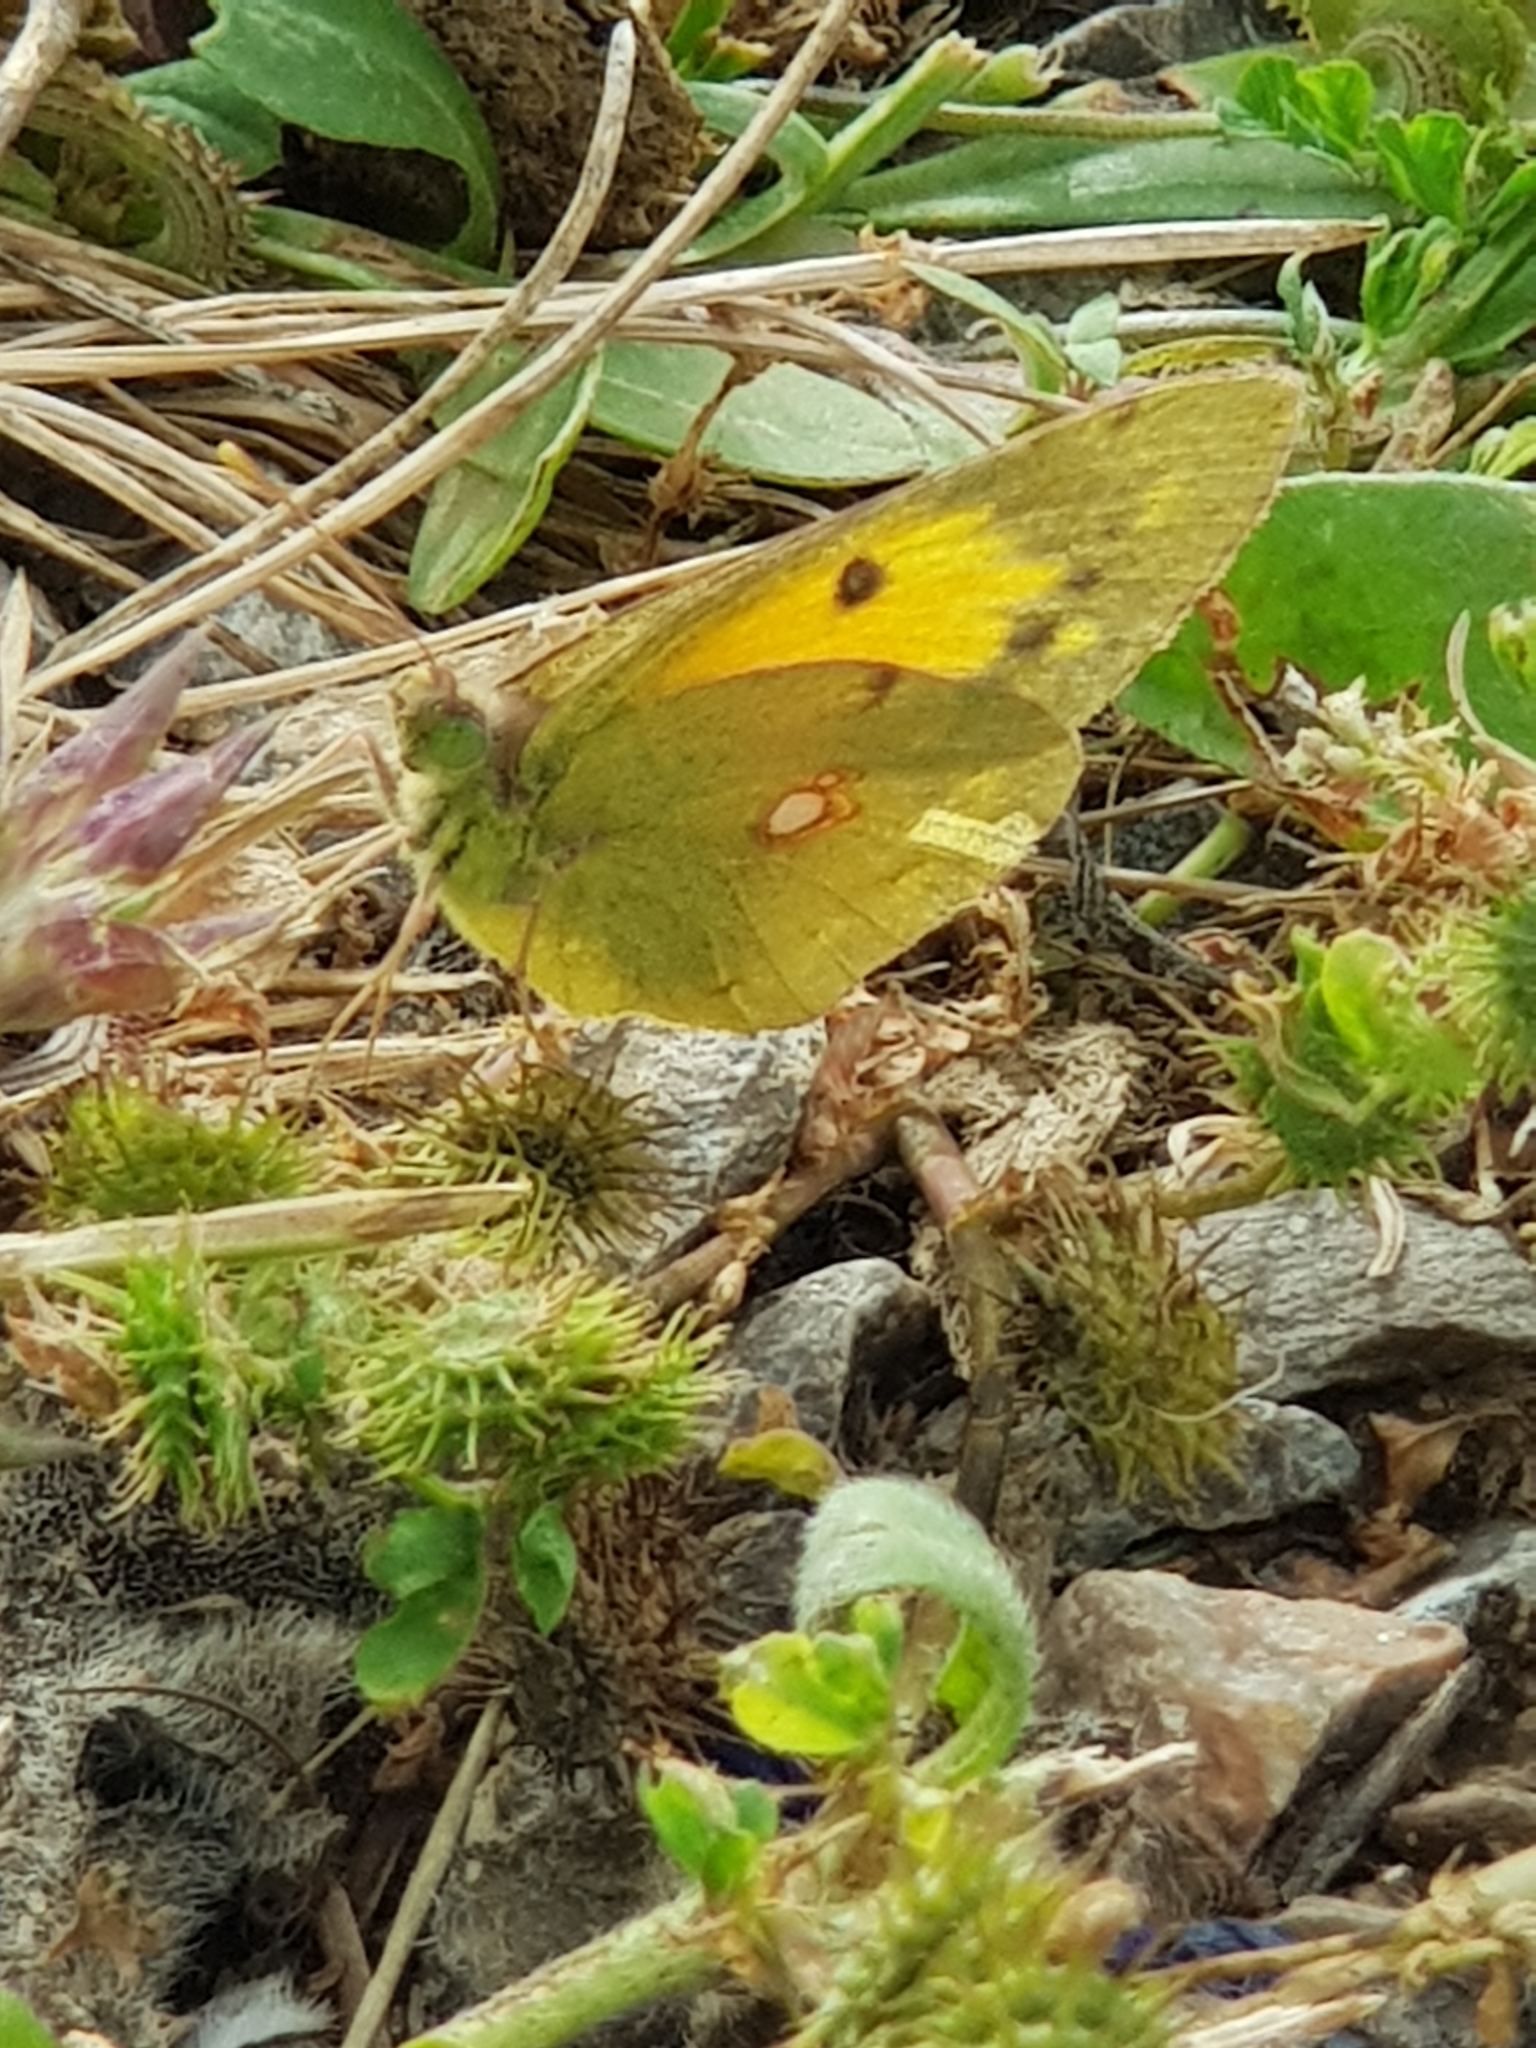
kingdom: Animalia
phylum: Arthropoda
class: Insecta
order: Lepidoptera
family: Pieridae
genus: Colias
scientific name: Colias croceus
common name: Clouded yellow
